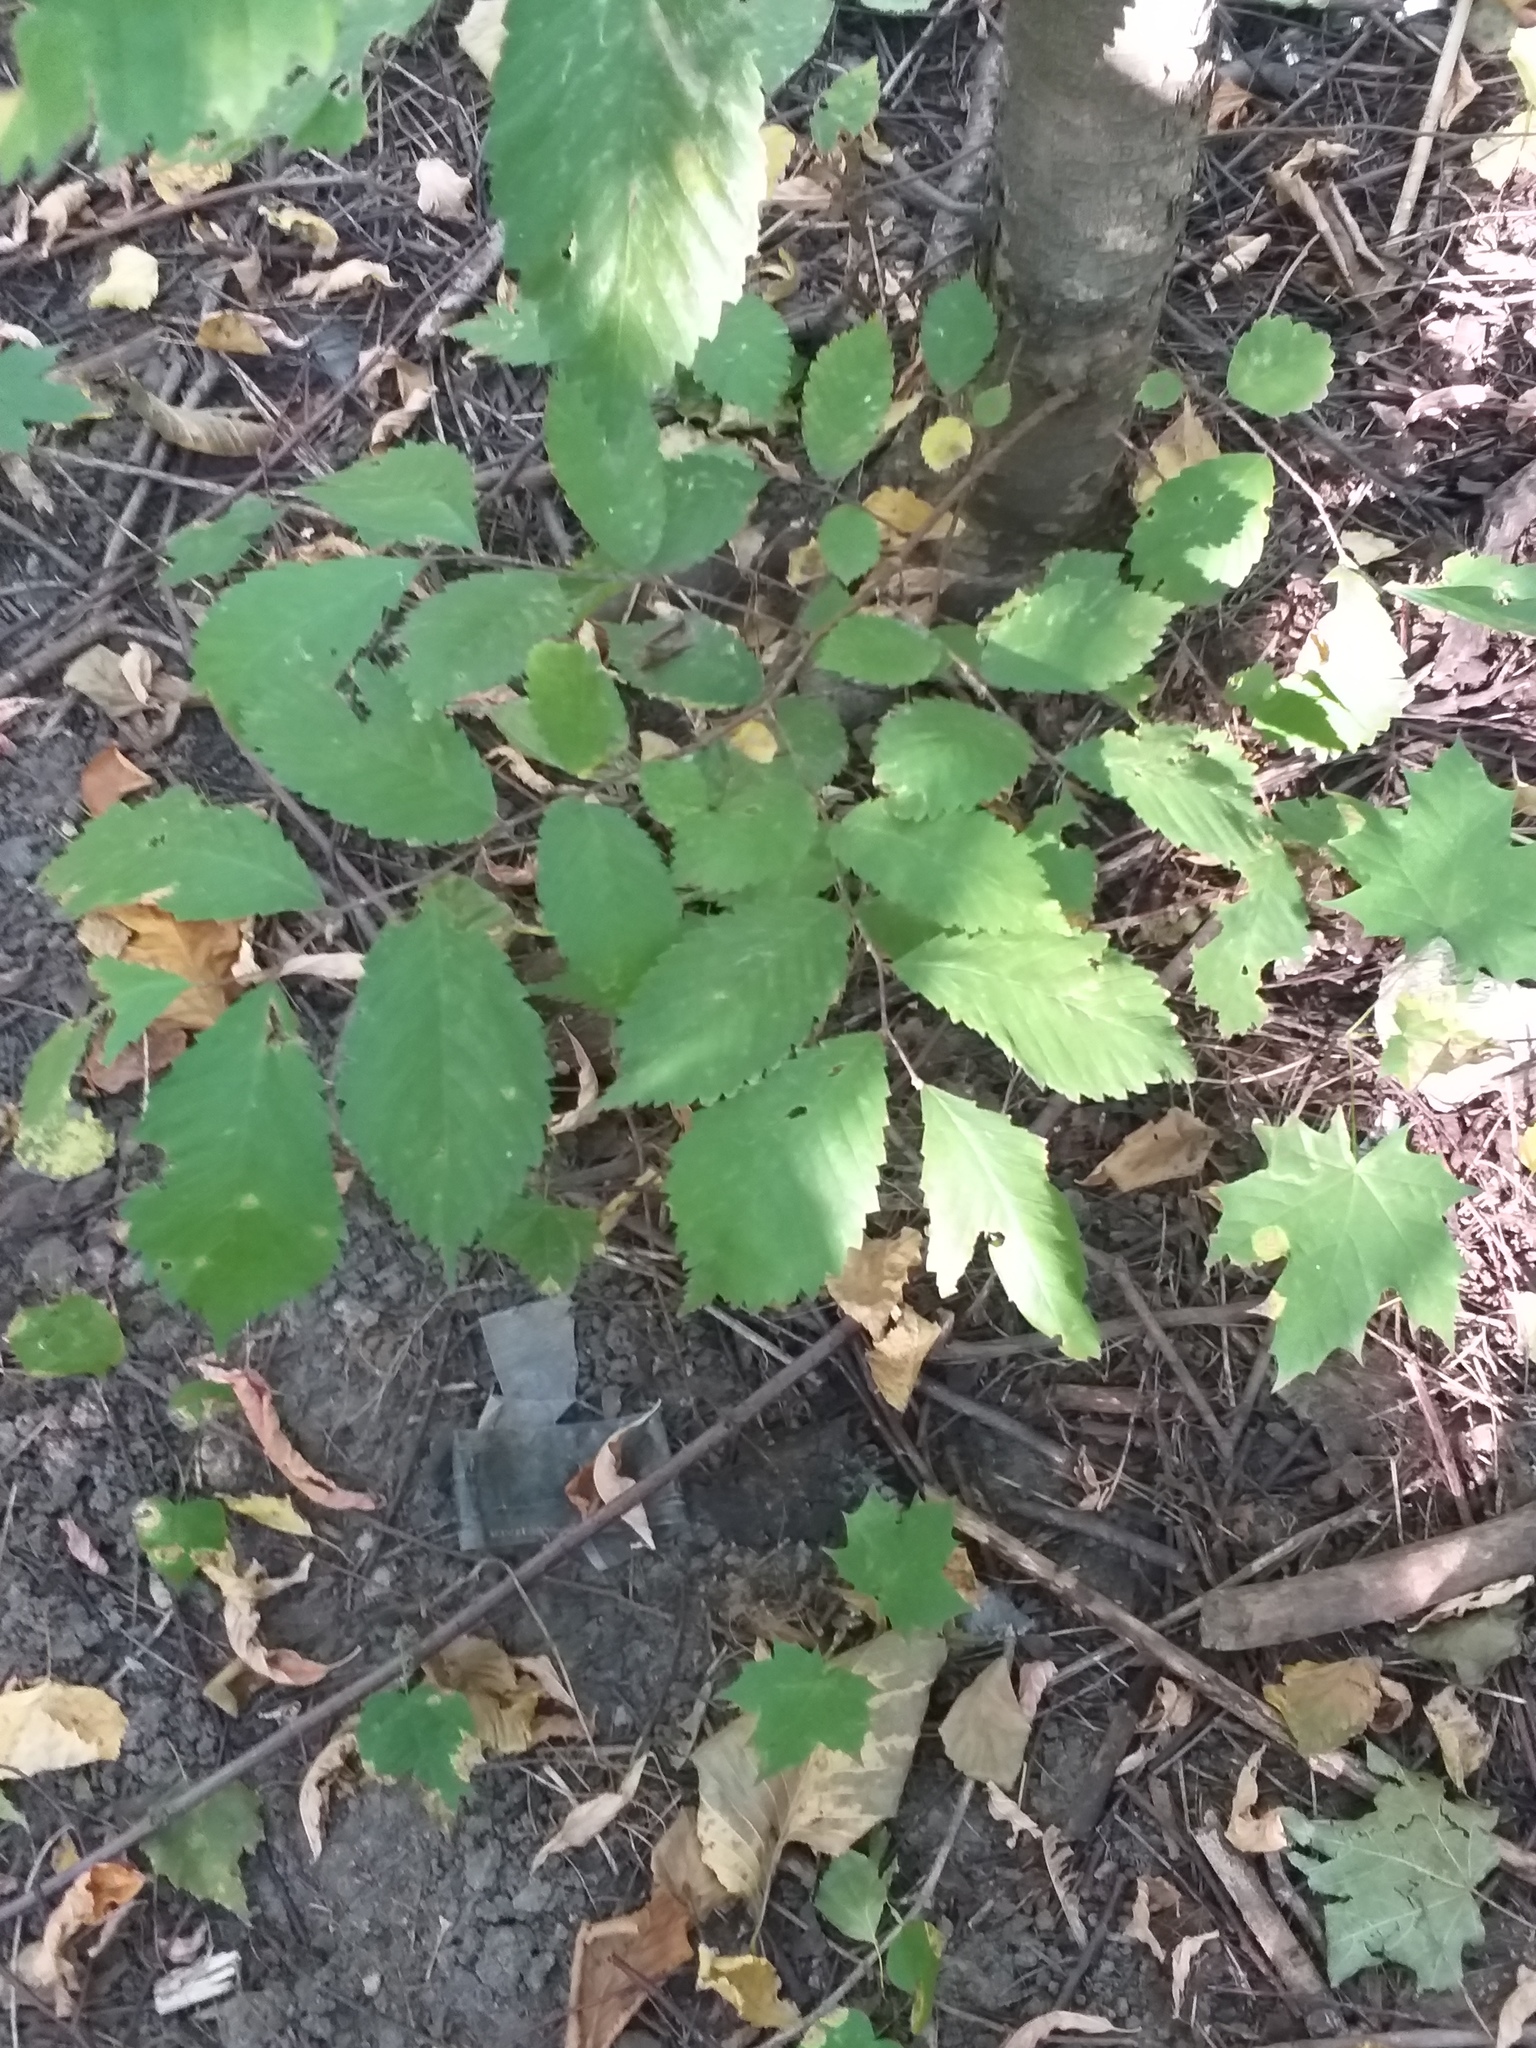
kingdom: Plantae
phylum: Tracheophyta
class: Magnoliopsida
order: Rosales
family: Ulmaceae
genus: Ulmus
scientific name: Ulmus glabra
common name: Wych elm
